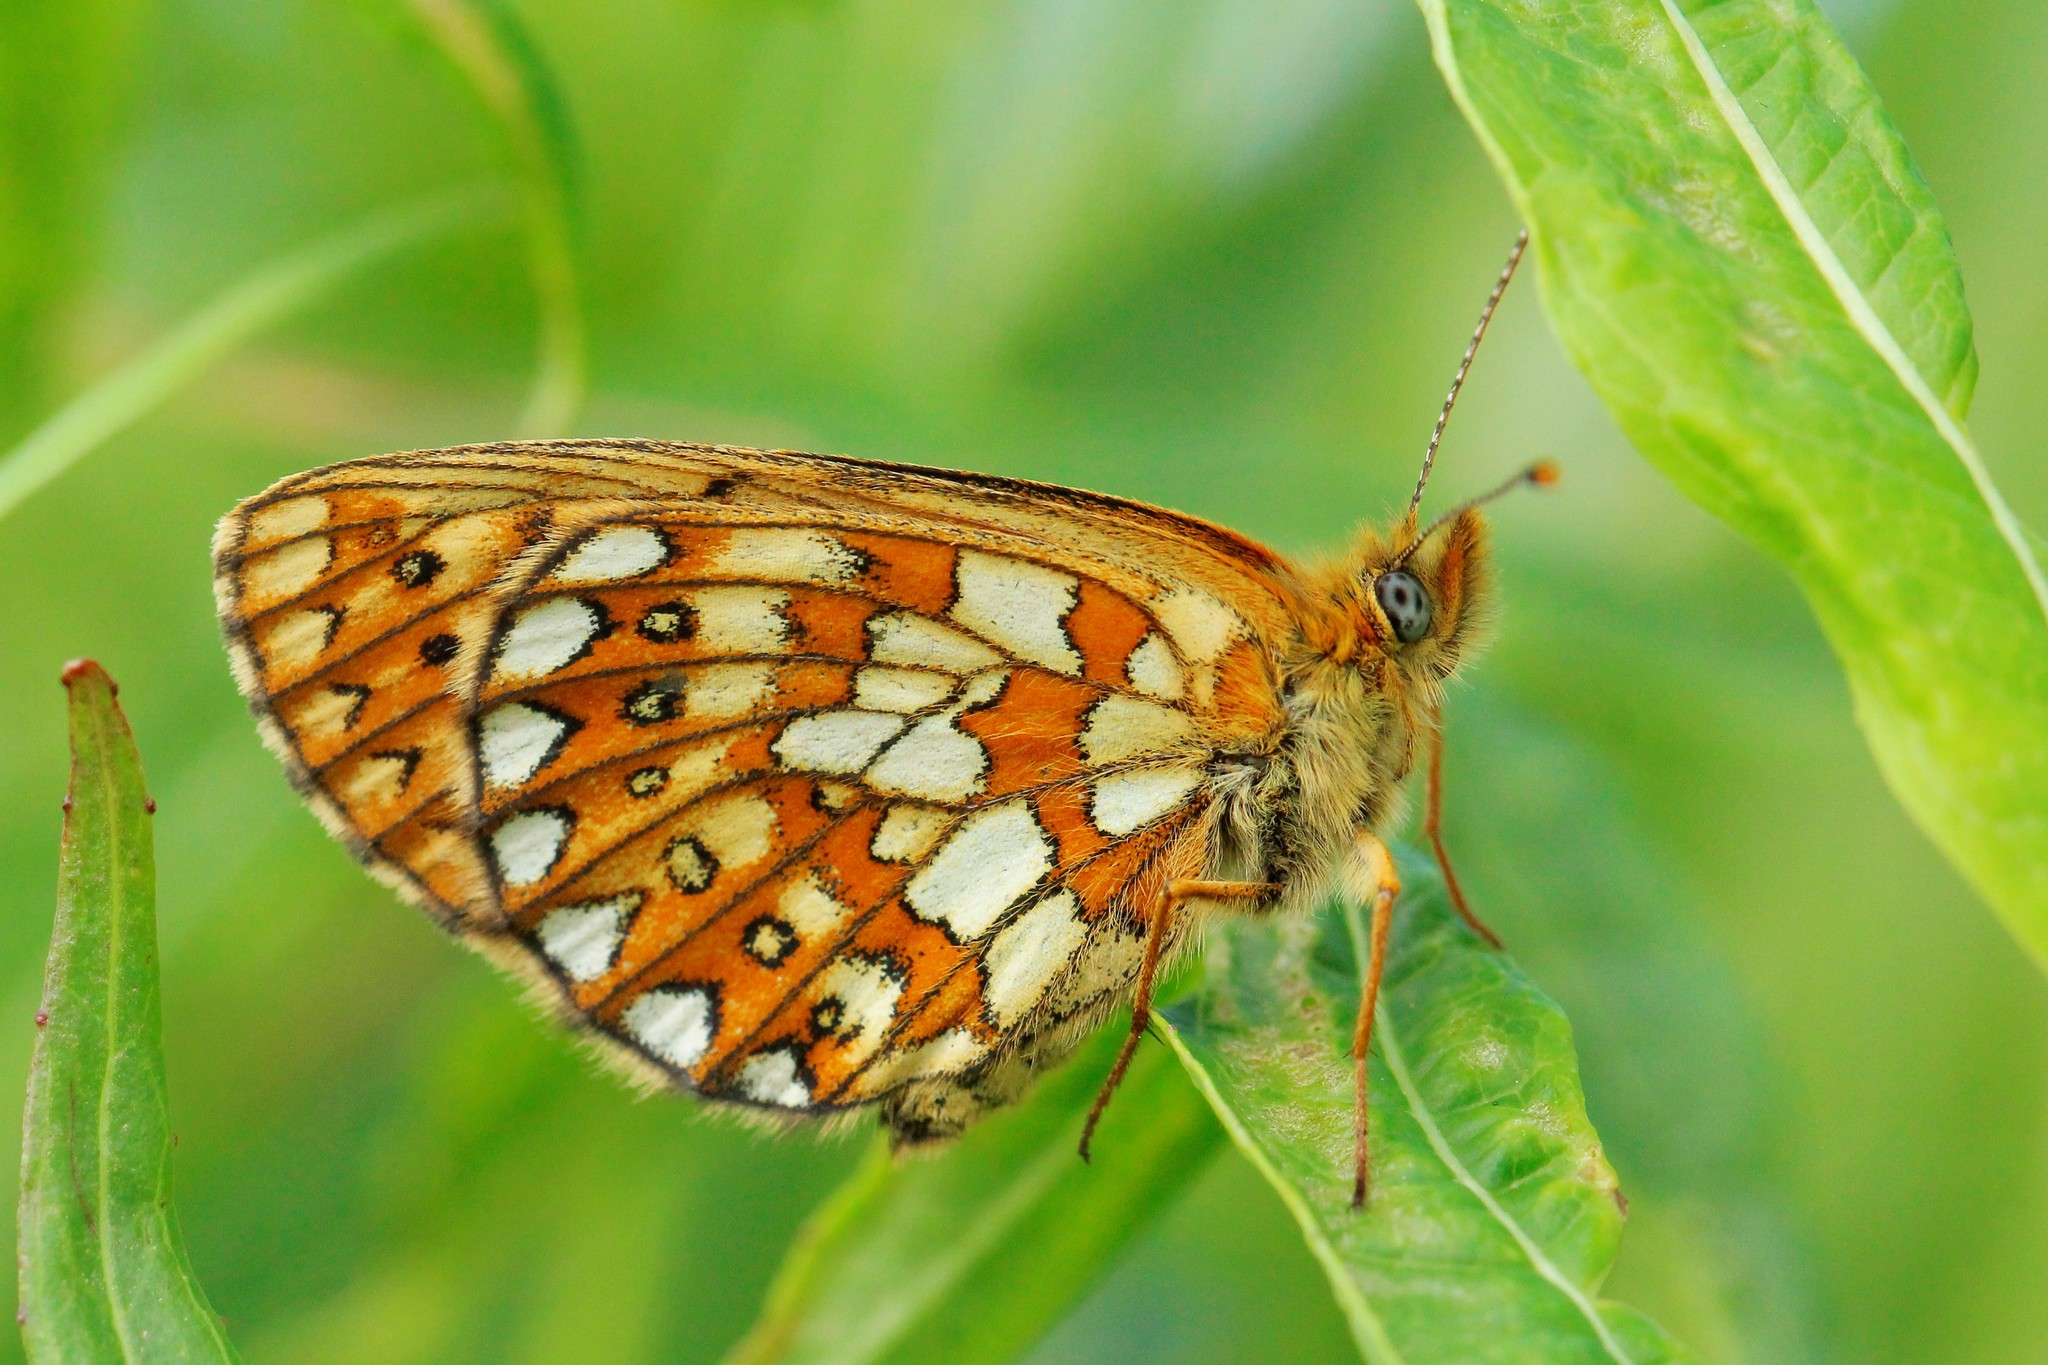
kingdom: Animalia
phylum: Arthropoda
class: Insecta
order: Lepidoptera
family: Nymphalidae
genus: Boloria
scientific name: Boloria eunomia
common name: Bog fritillary
